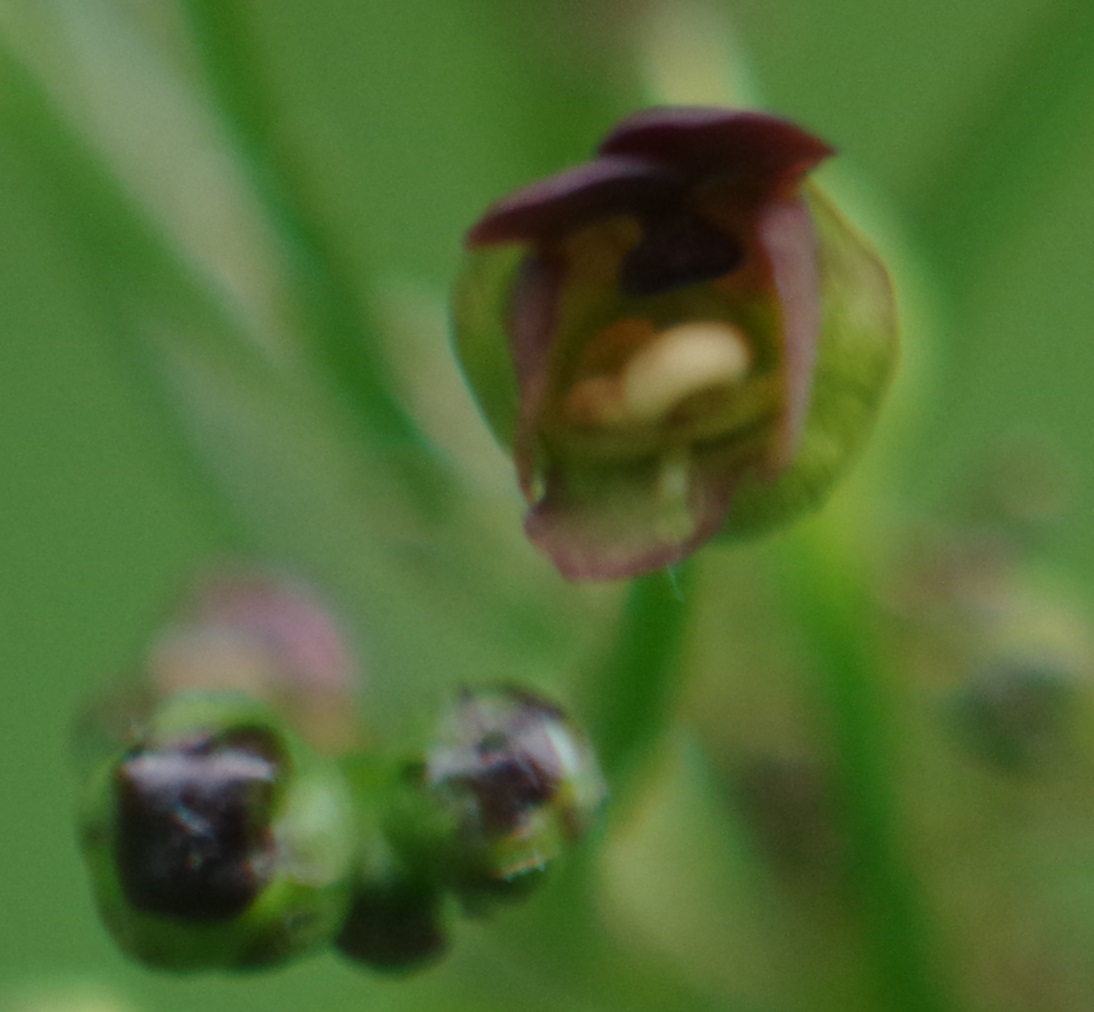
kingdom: Plantae
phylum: Tracheophyta
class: Magnoliopsida
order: Lamiales
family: Scrophulariaceae
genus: Scrophularia
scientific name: Scrophularia nodosa
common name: Common figwort
